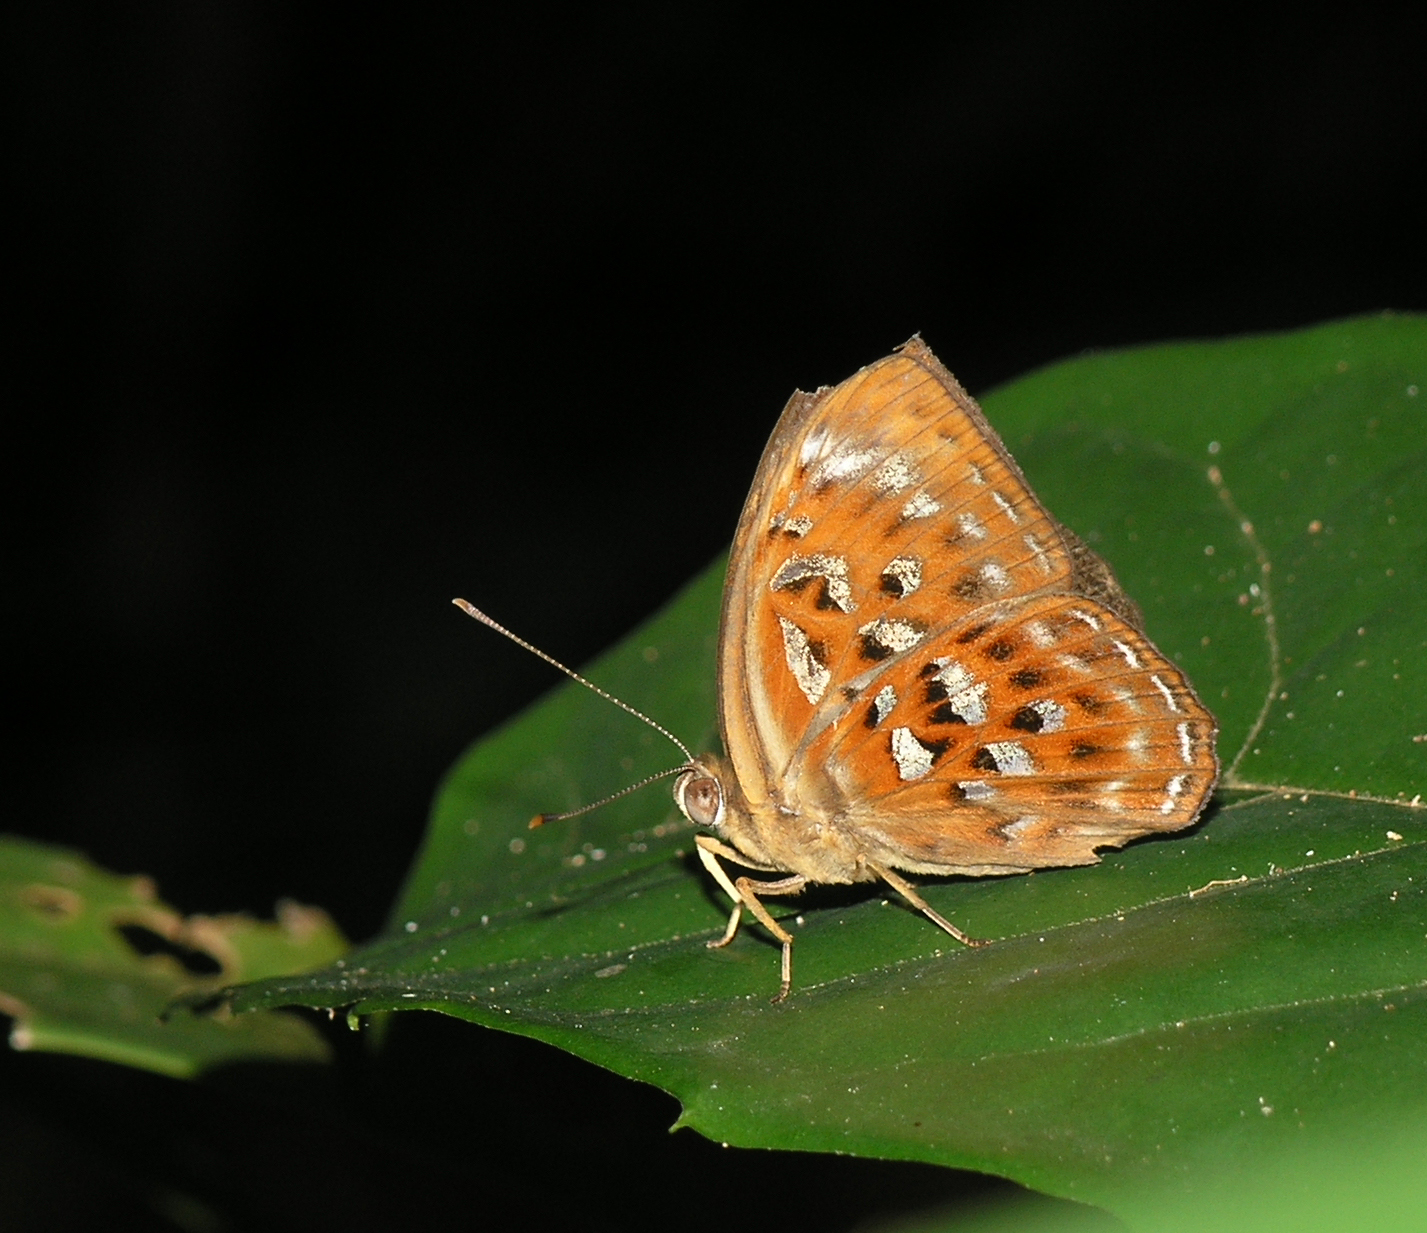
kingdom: Animalia
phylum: Arthropoda
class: Insecta
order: Lepidoptera
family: Erebidae
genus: Dysschema
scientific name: Dysschema
